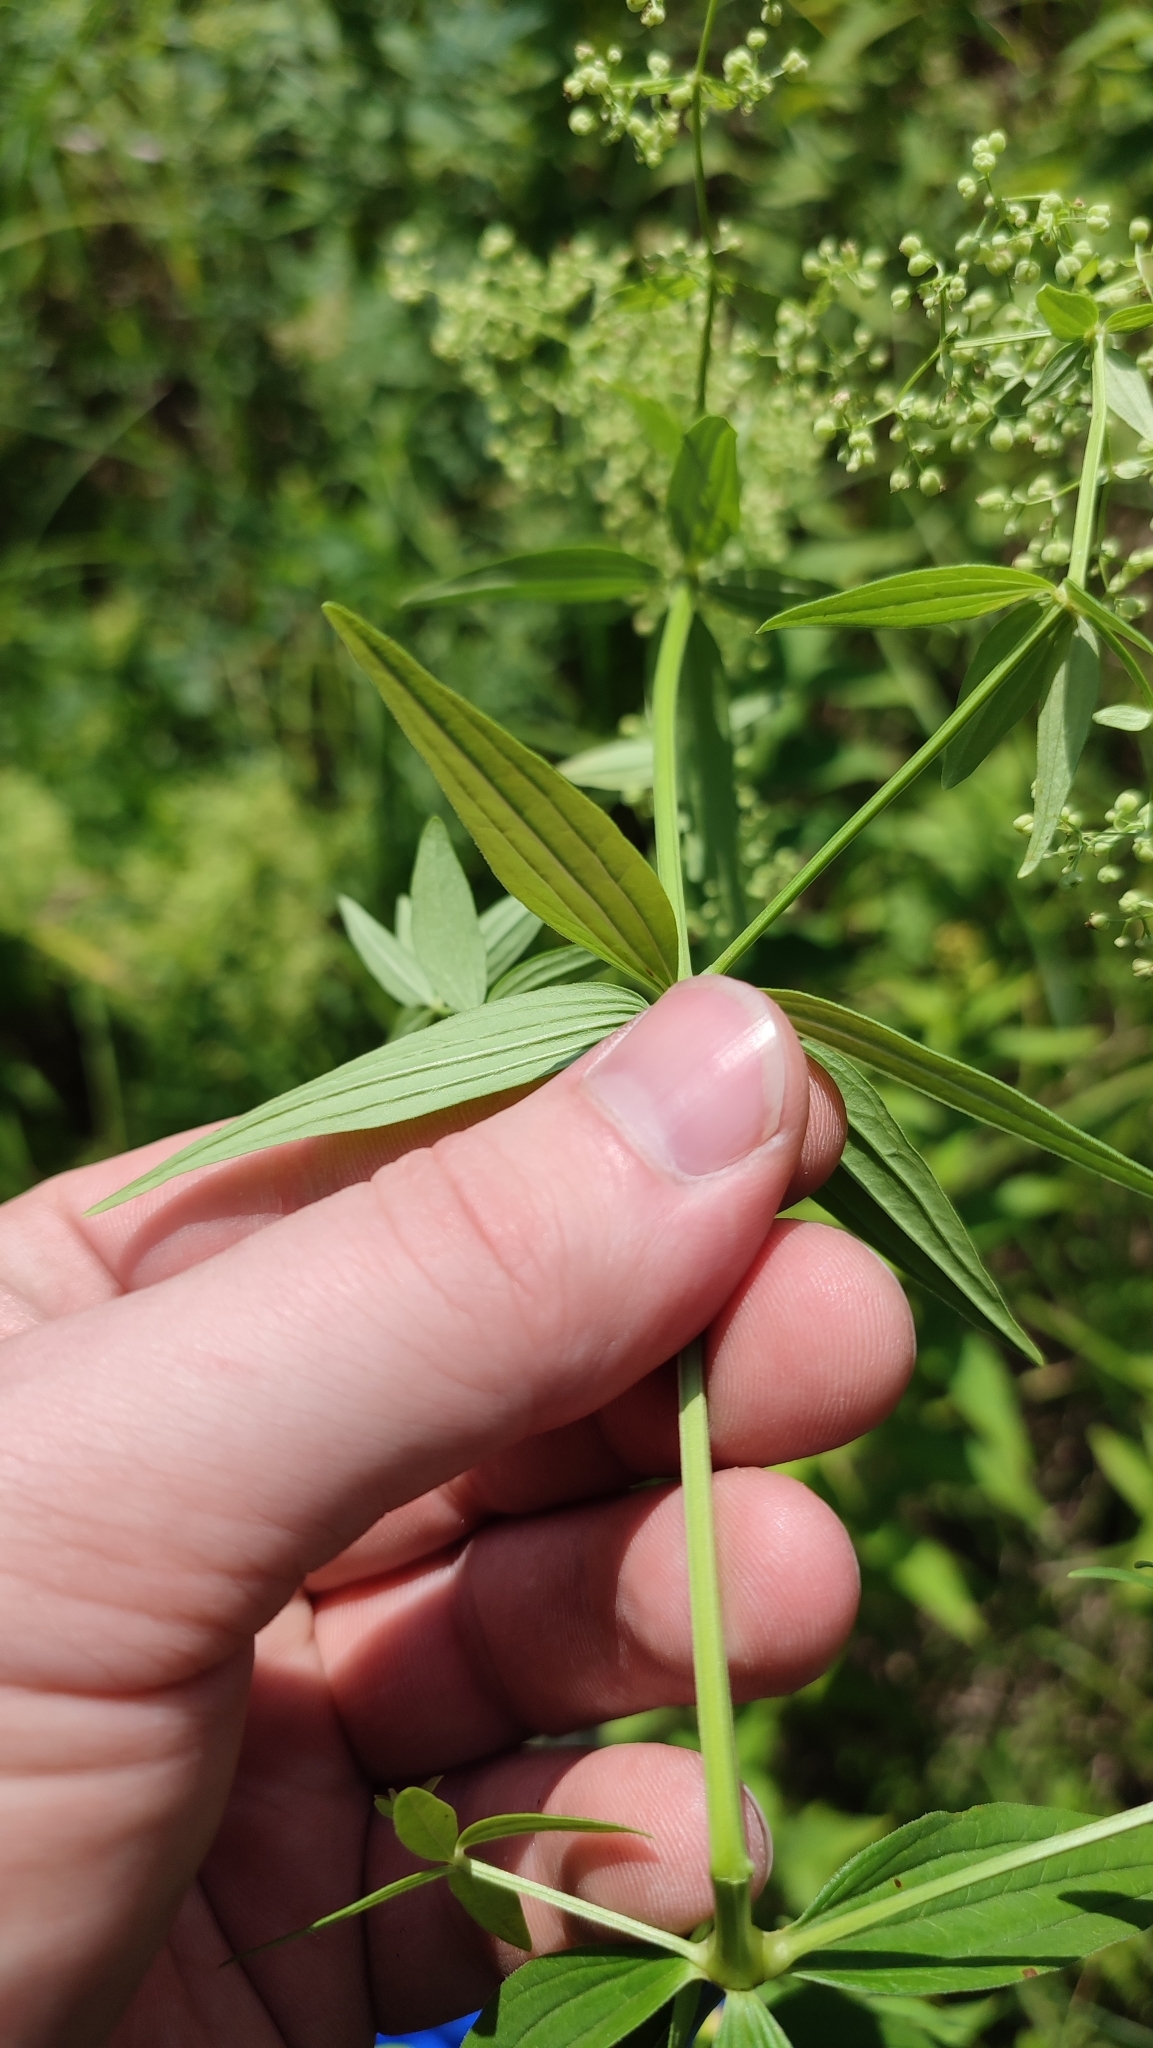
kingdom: Plantae
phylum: Tracheophyta
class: Magnoliopsida
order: Gentianales
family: Rubiaceae
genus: Galium
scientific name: Galium rubioides
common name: European bedstraw
